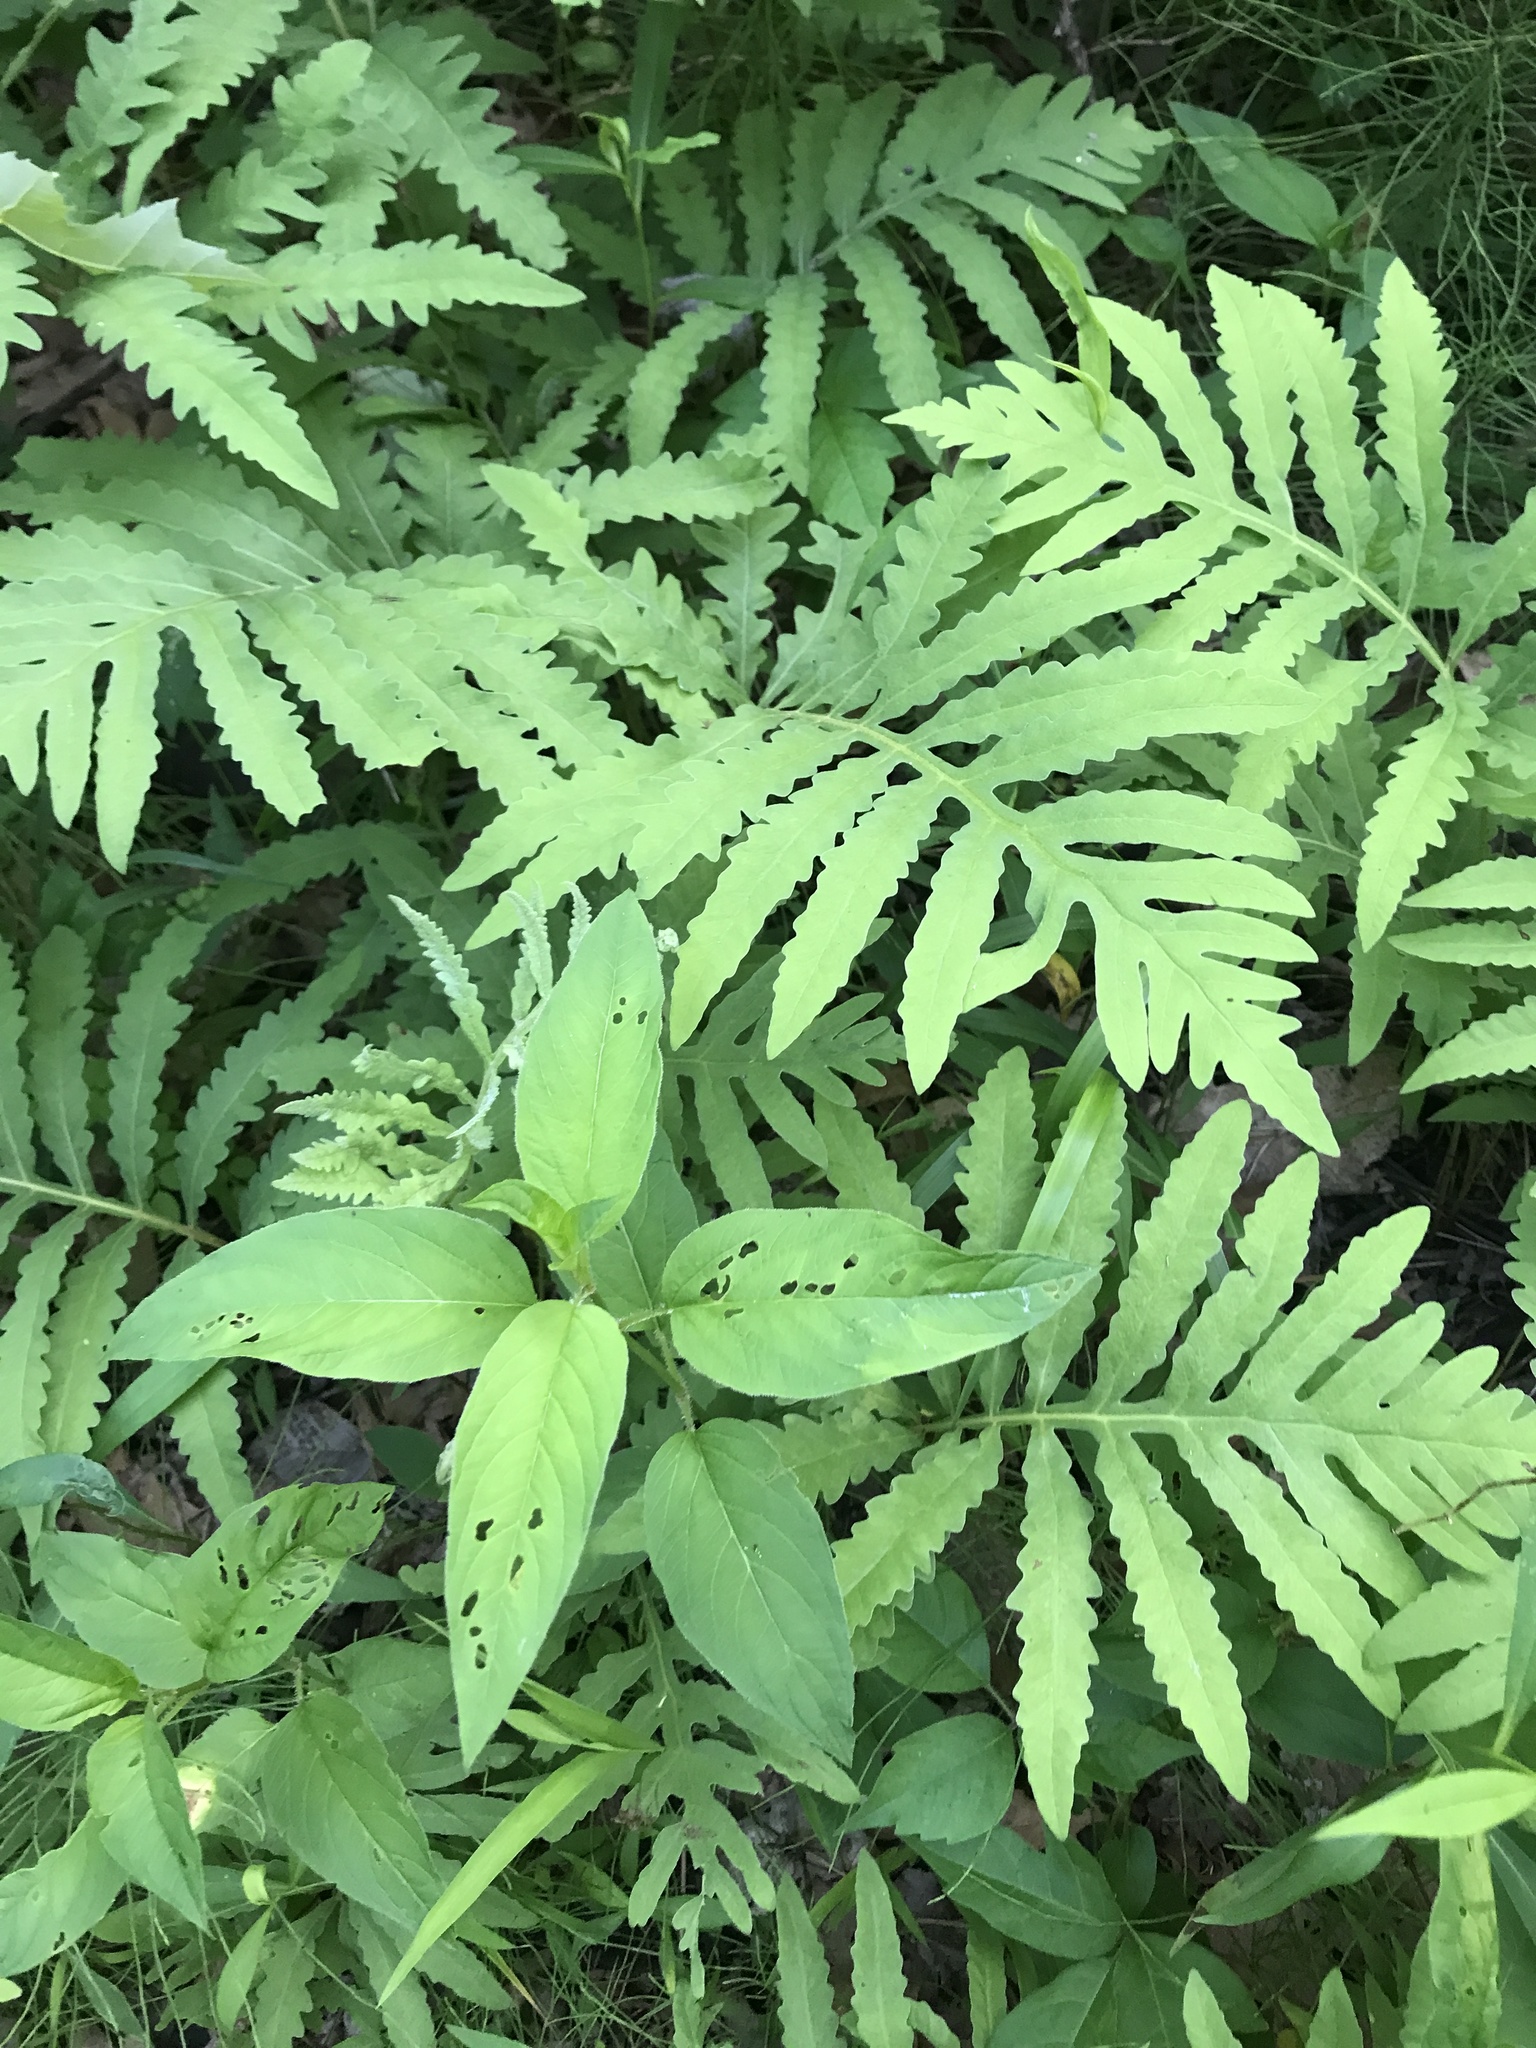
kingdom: Plantae
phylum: Tracheophyta
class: Polypodiopsida
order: Polypodiales
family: Onocleaceae
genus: Onoclea
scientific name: Onoclea sensibilis
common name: Sensitive fern
